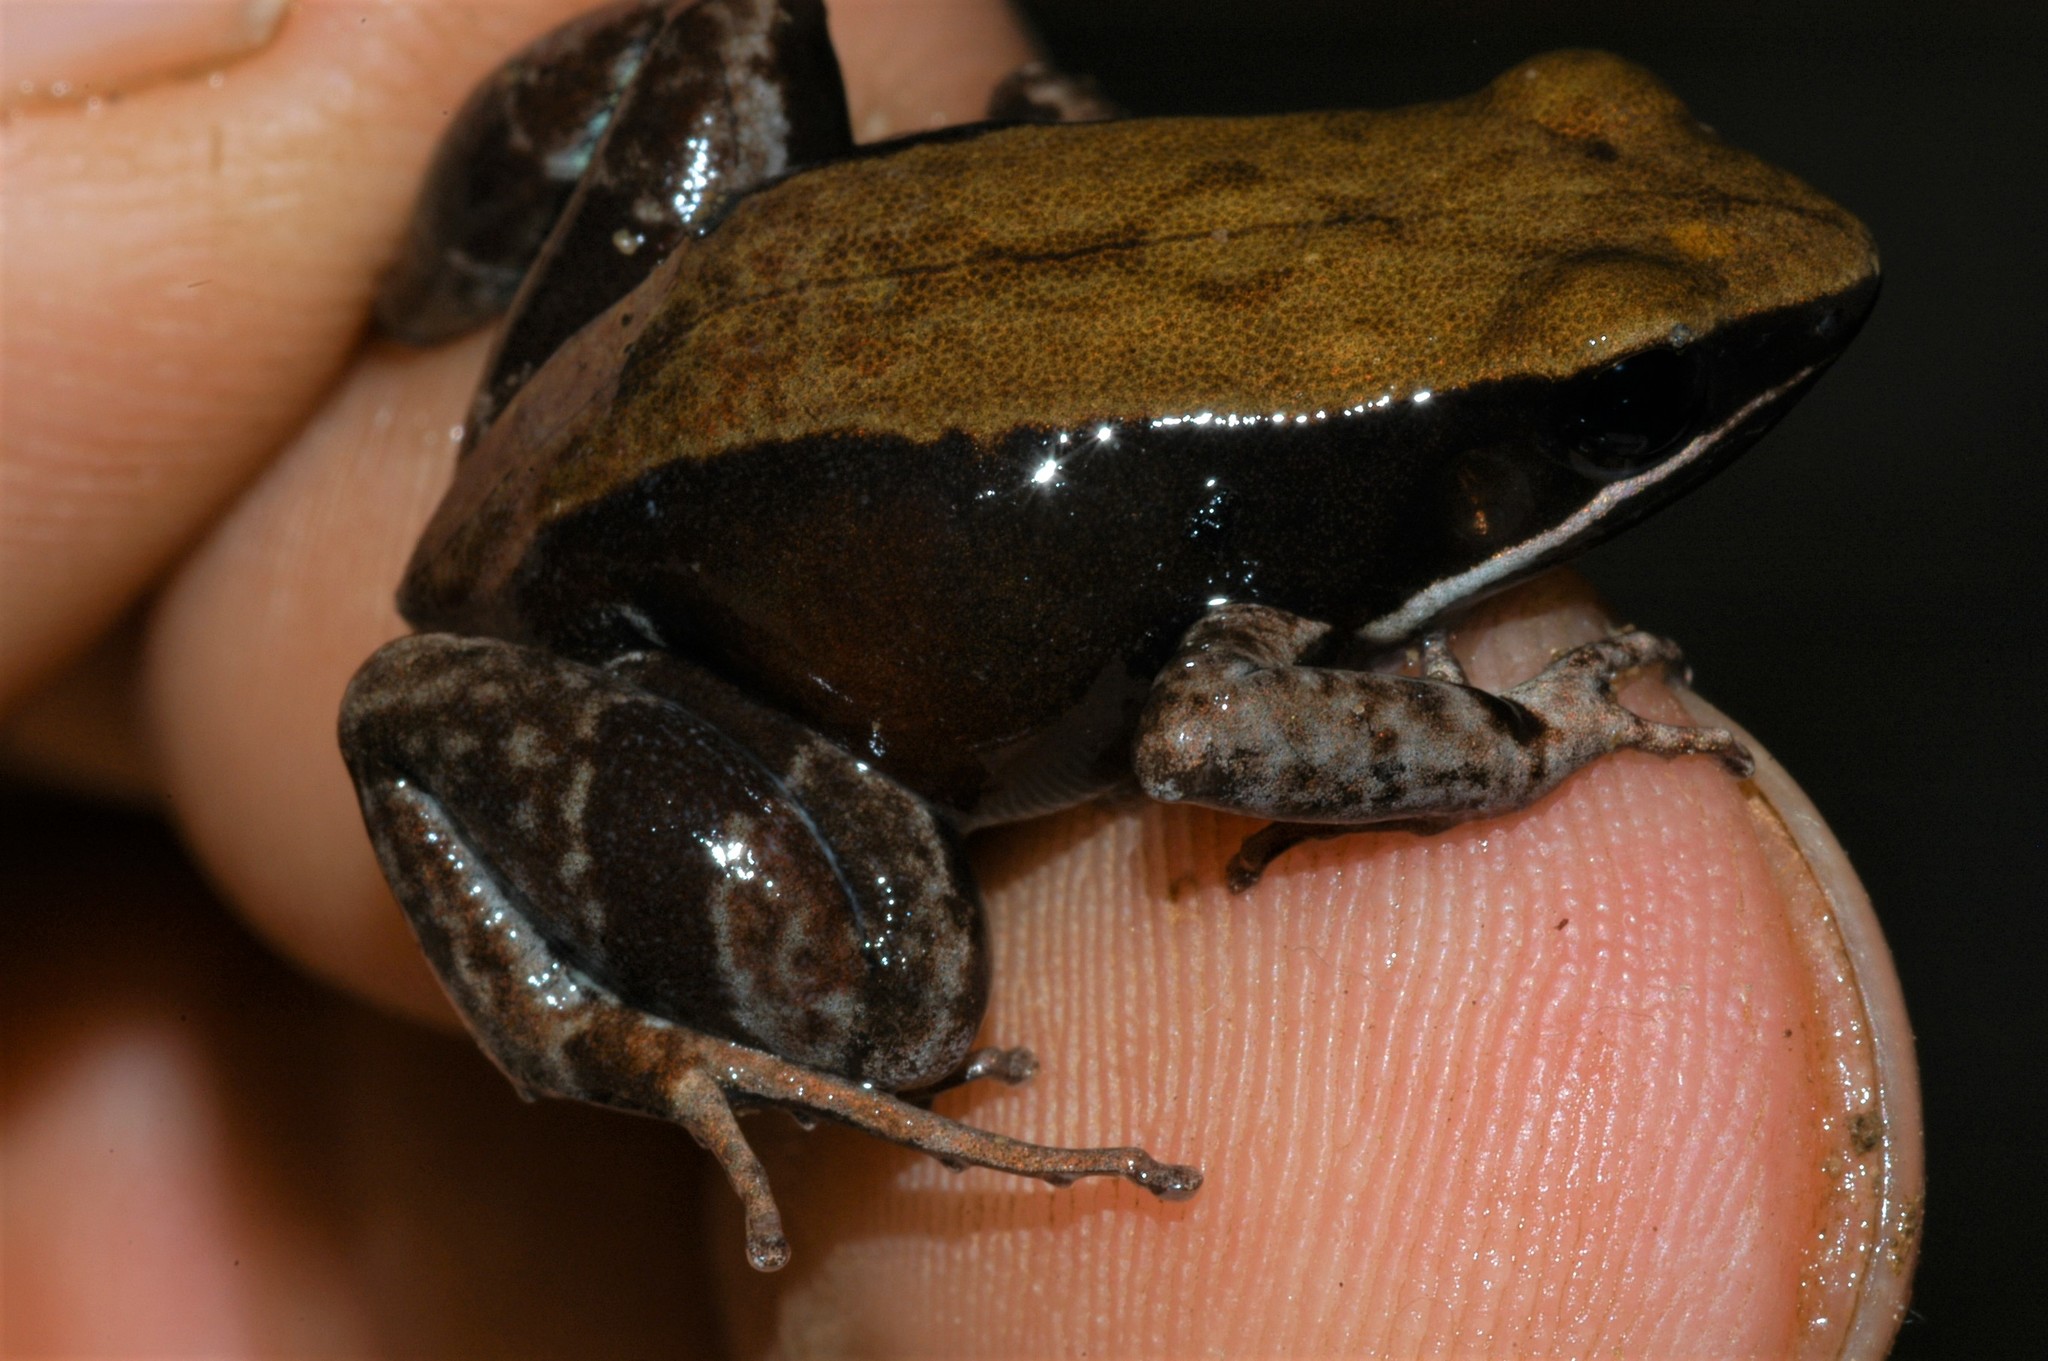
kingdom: Animalia
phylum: Chordata
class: Amphibia
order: Anura
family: Mantellidae
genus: Mantella
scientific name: Mantella ebenaui
